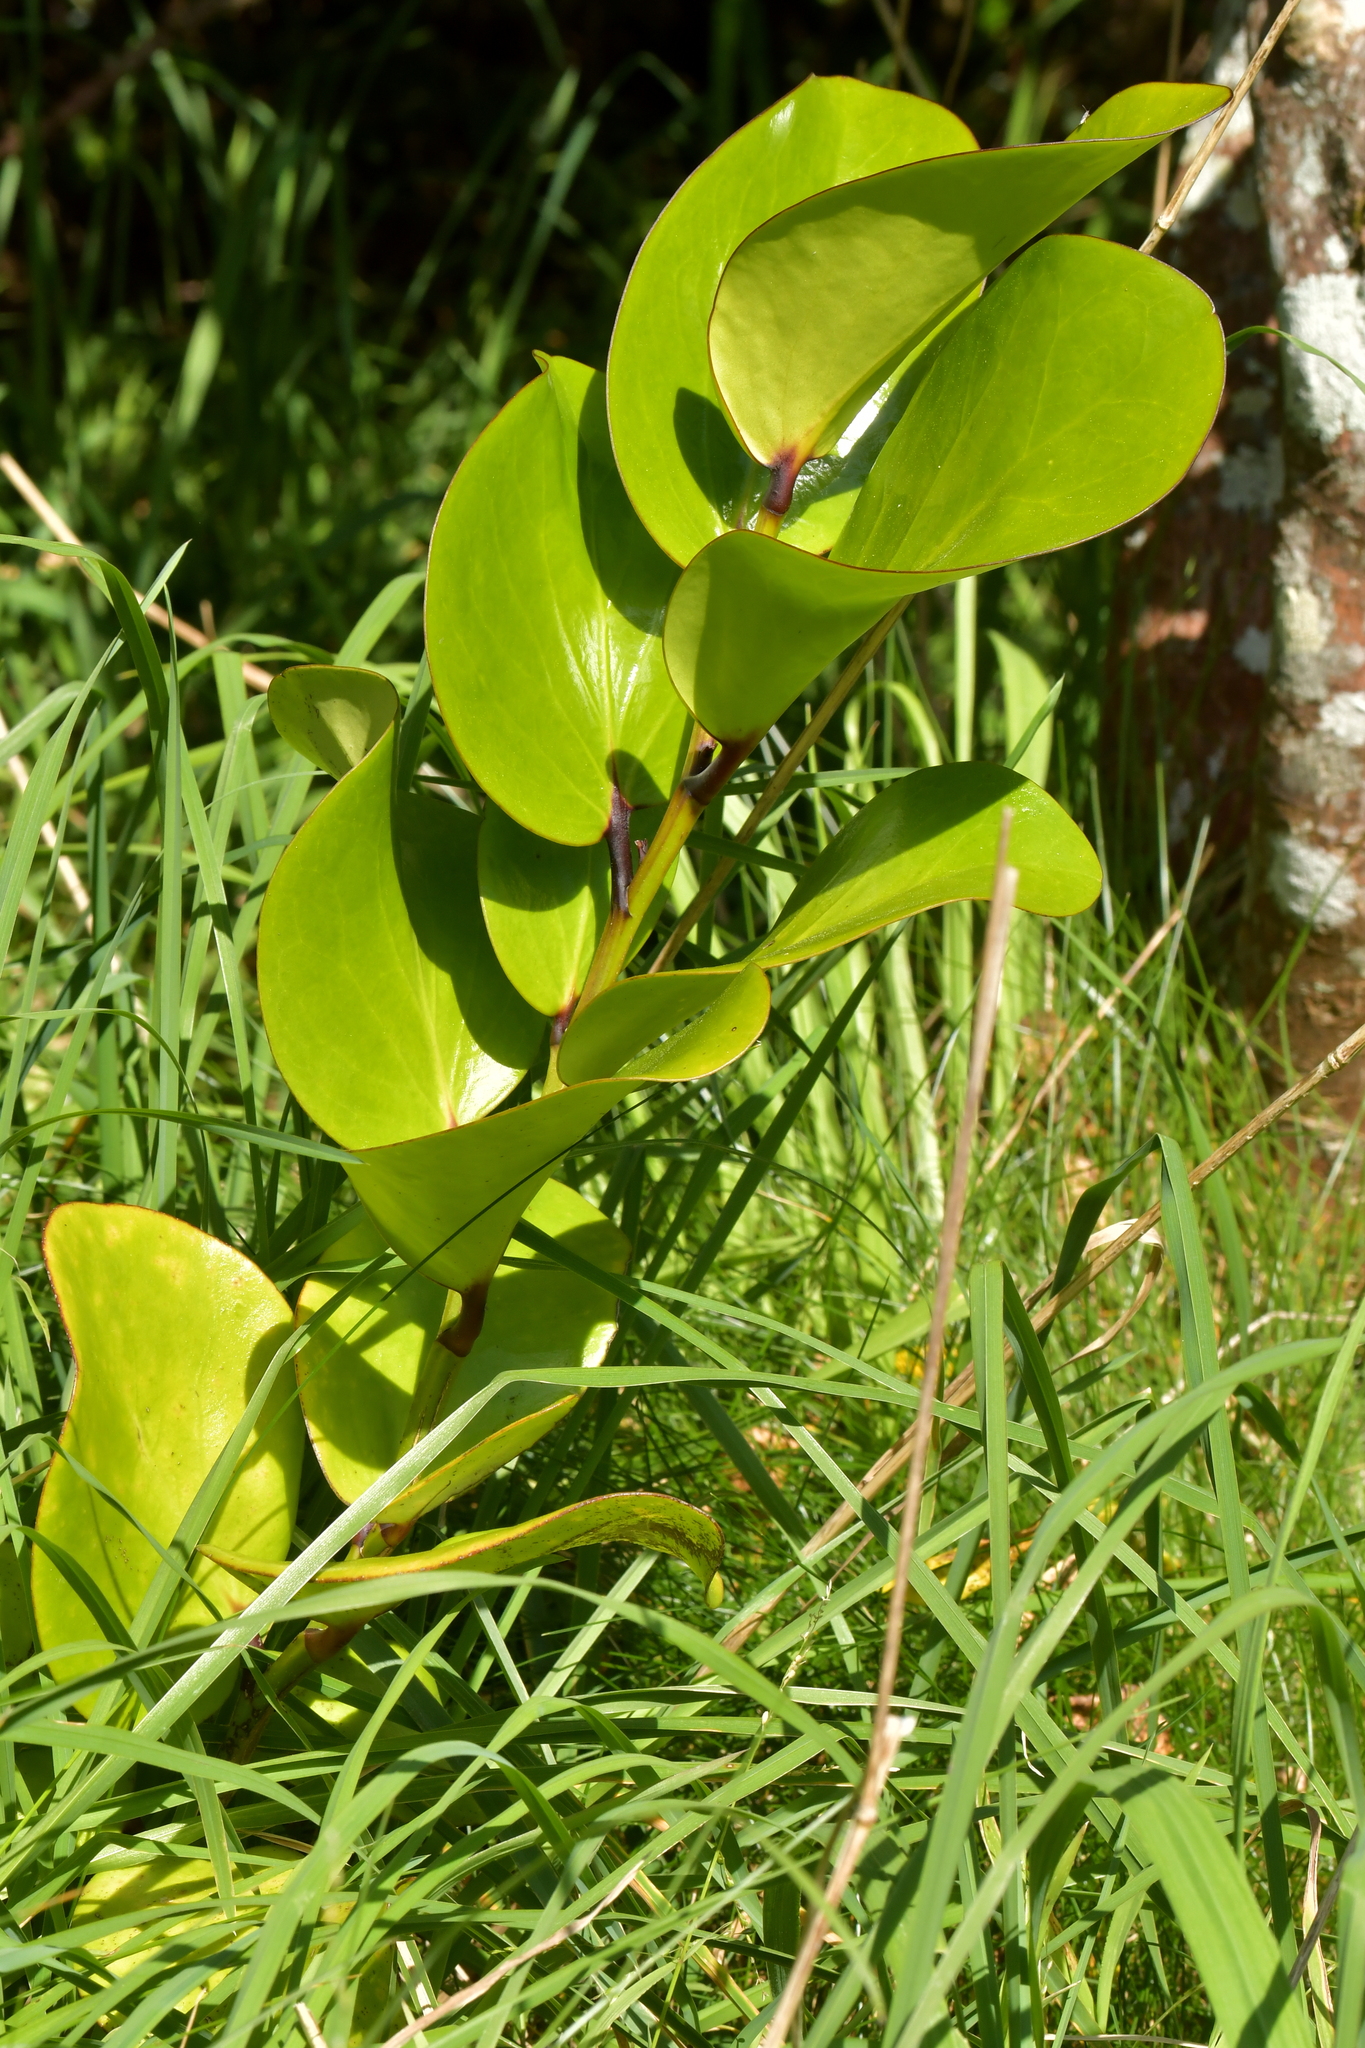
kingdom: Plantae
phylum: Tracheophyta
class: Magnoliopsida
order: Apiales
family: Griseliniaceae
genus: Griselinia
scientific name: Griselinia lucida
